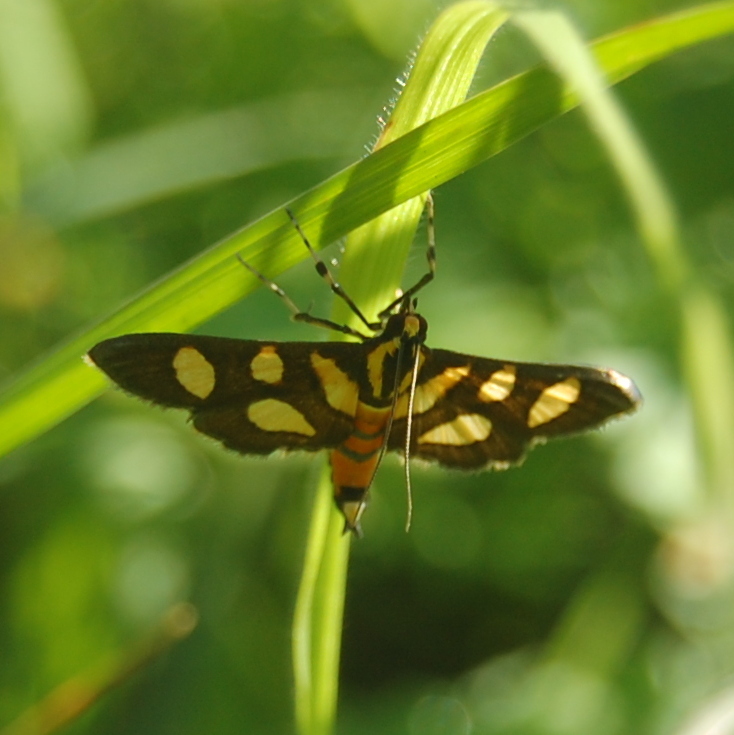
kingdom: Animalia
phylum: Arthropoda
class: Insecta
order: Lepidoptera
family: Crambidae
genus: Syngamia
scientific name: Syngamia florella
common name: Orange-spotted flower moth
